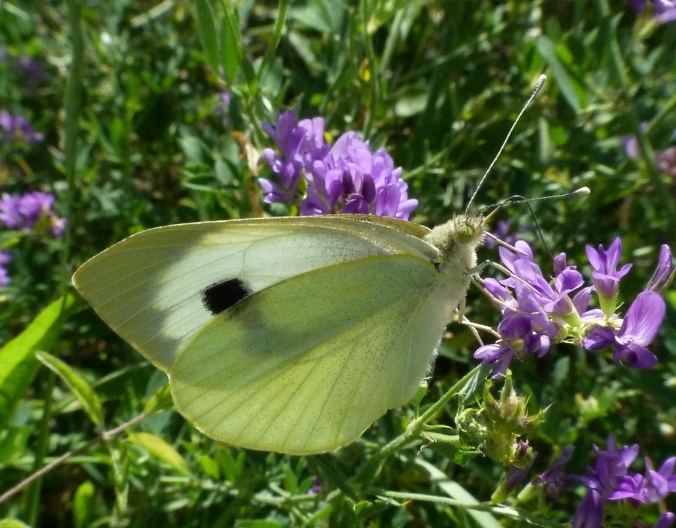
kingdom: Animalia
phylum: Arthropoda
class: Insecta
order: Lepidoptera
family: Pieridae
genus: Pieris
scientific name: Pieris brassicae
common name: Large white
